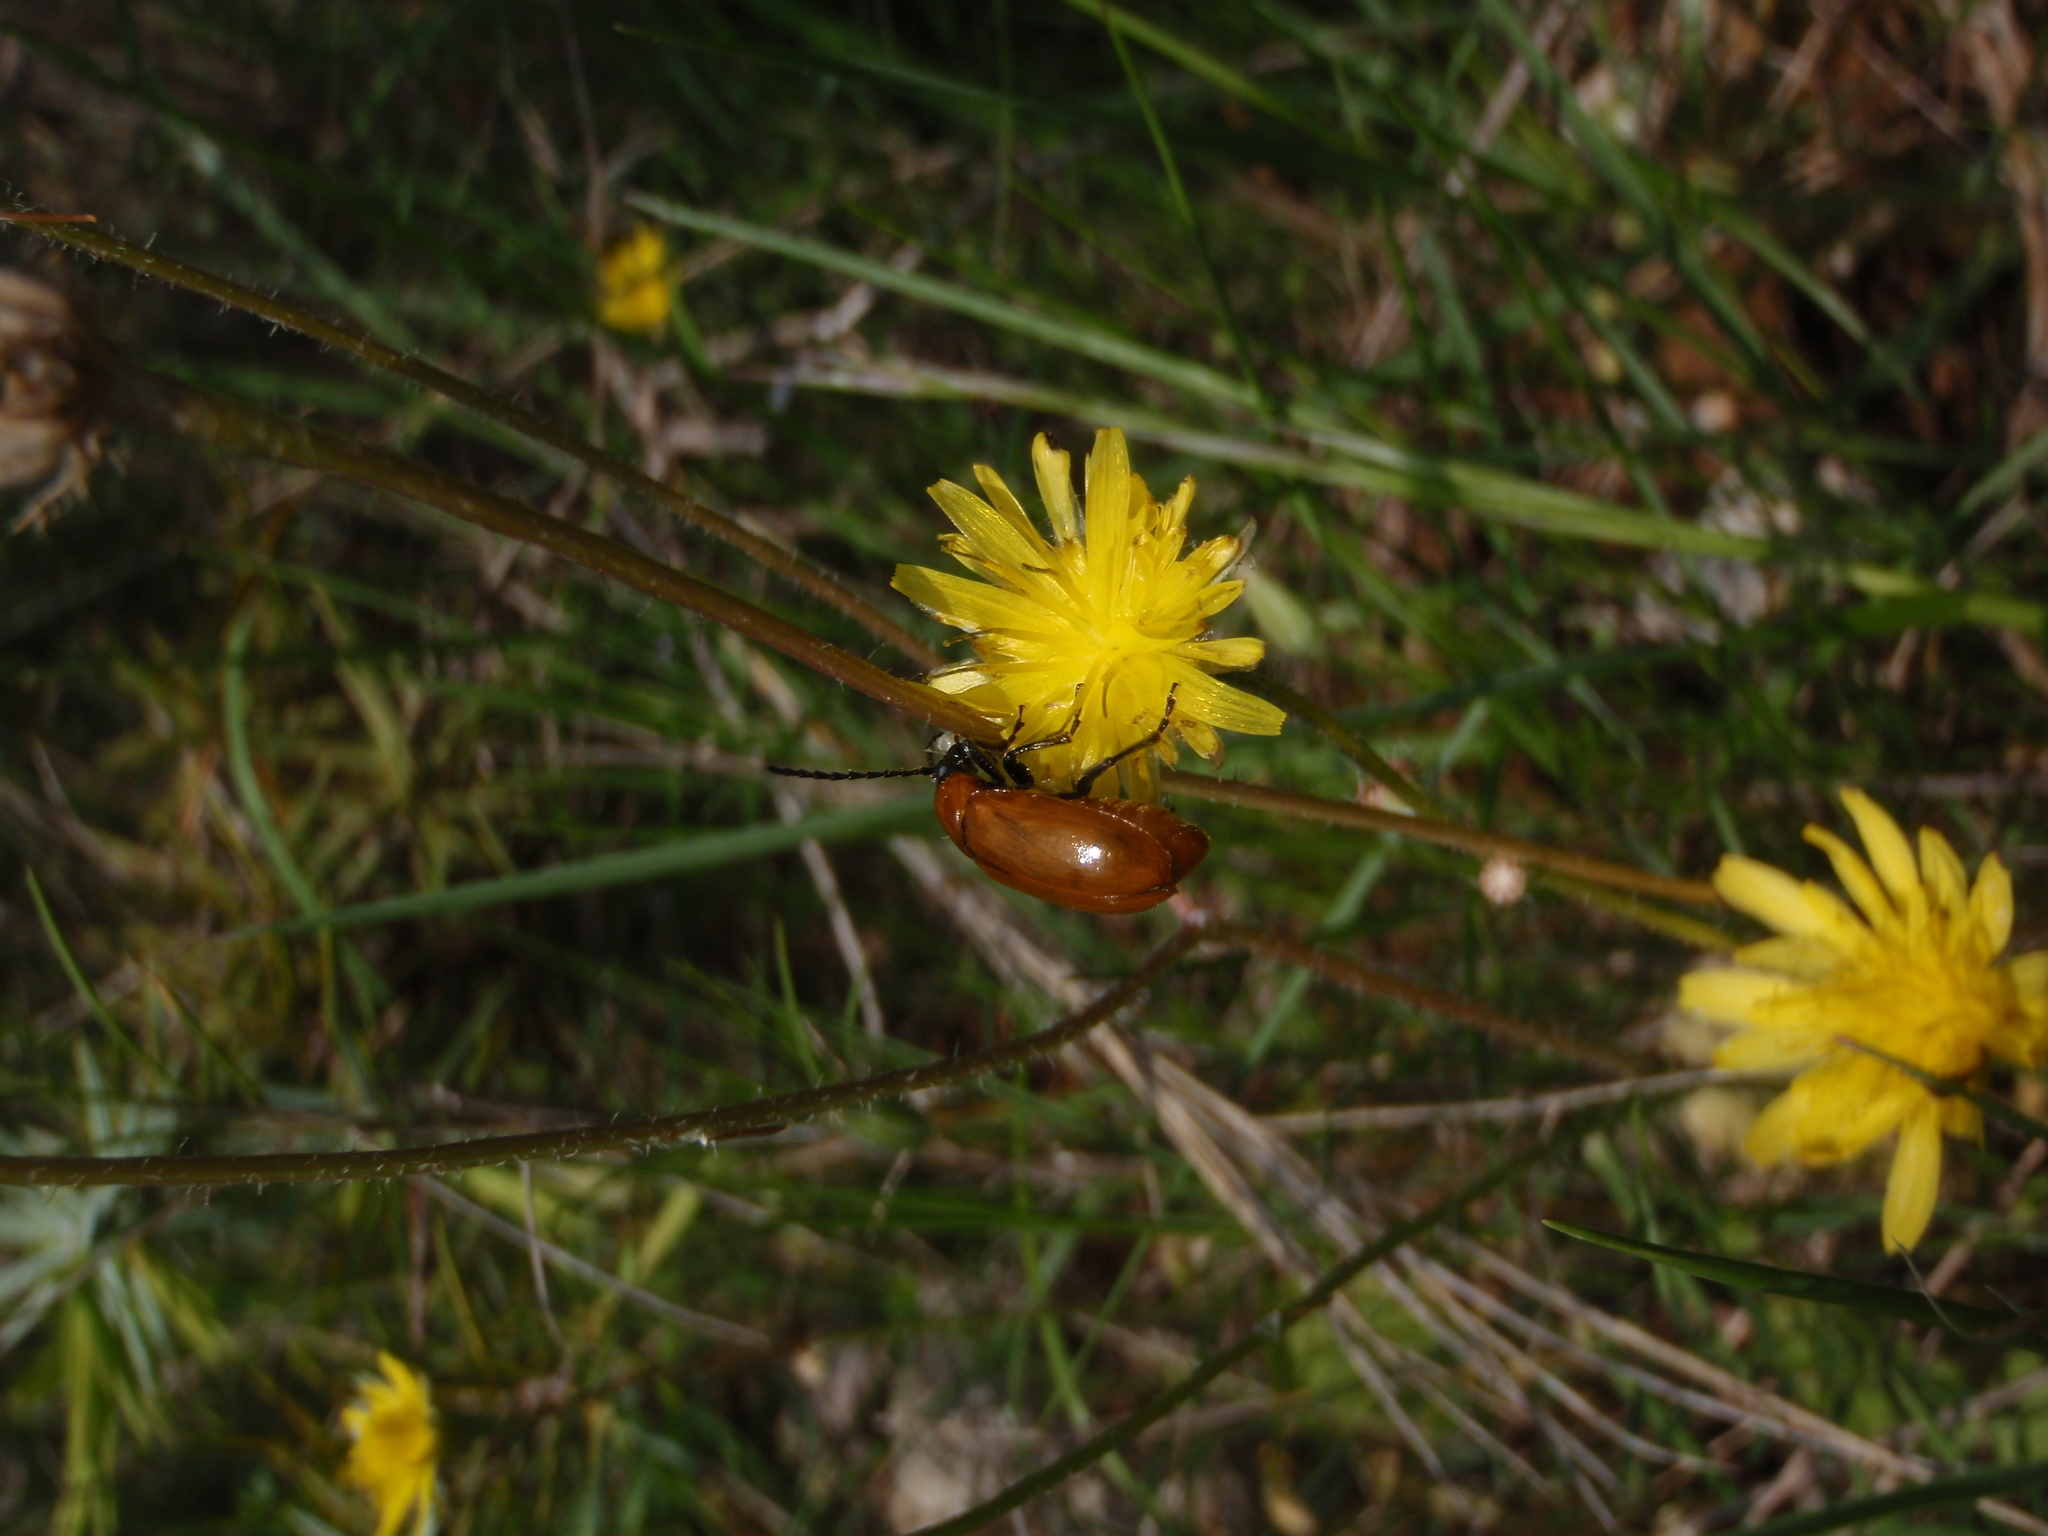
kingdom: Animalia
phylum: Arthropoda
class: Insecta
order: Coleoptera
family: Chrysomelidae
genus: Exosoma
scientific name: Exosoma lusitanicum
